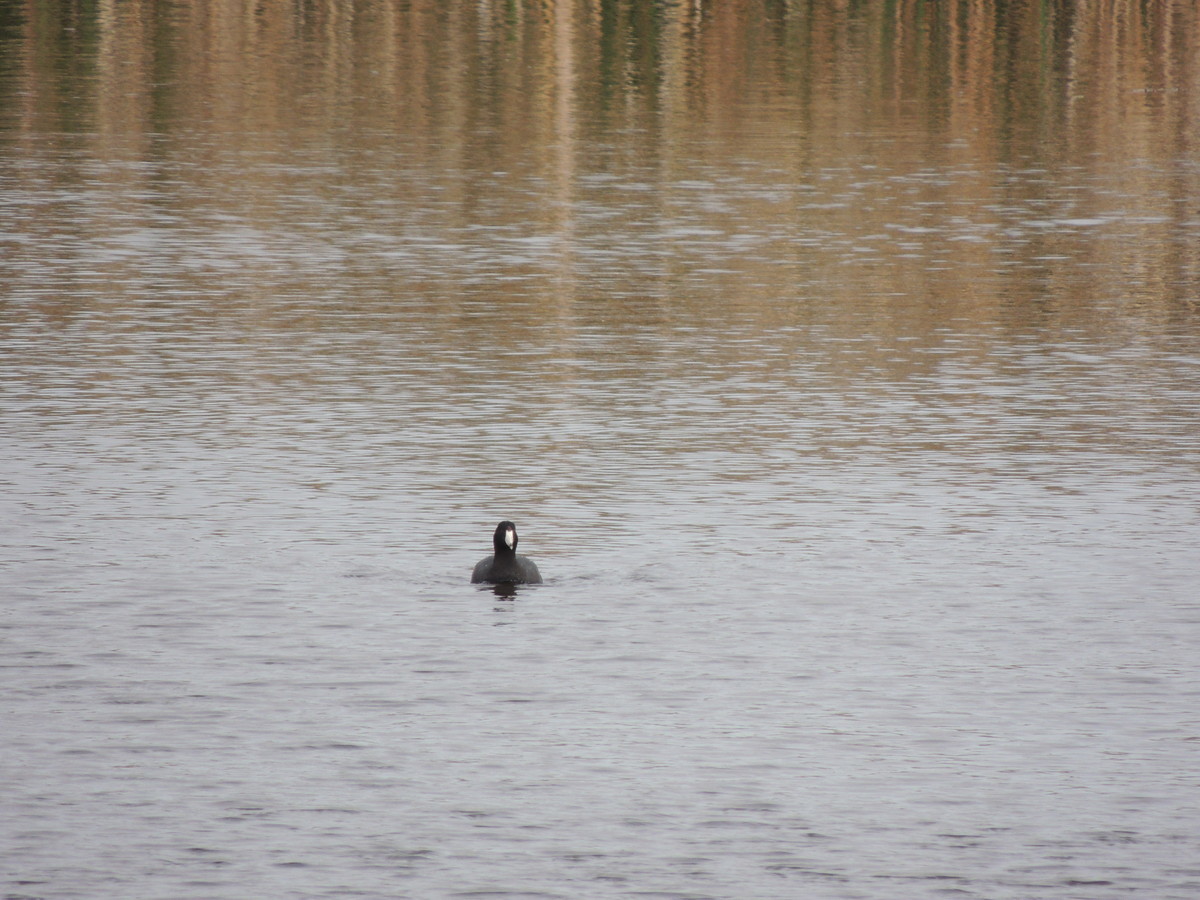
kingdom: Animalia
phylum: Chordata
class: Aves
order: Gruiformes
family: Rallidae
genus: Fulica
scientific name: Fulica americana
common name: American coot
